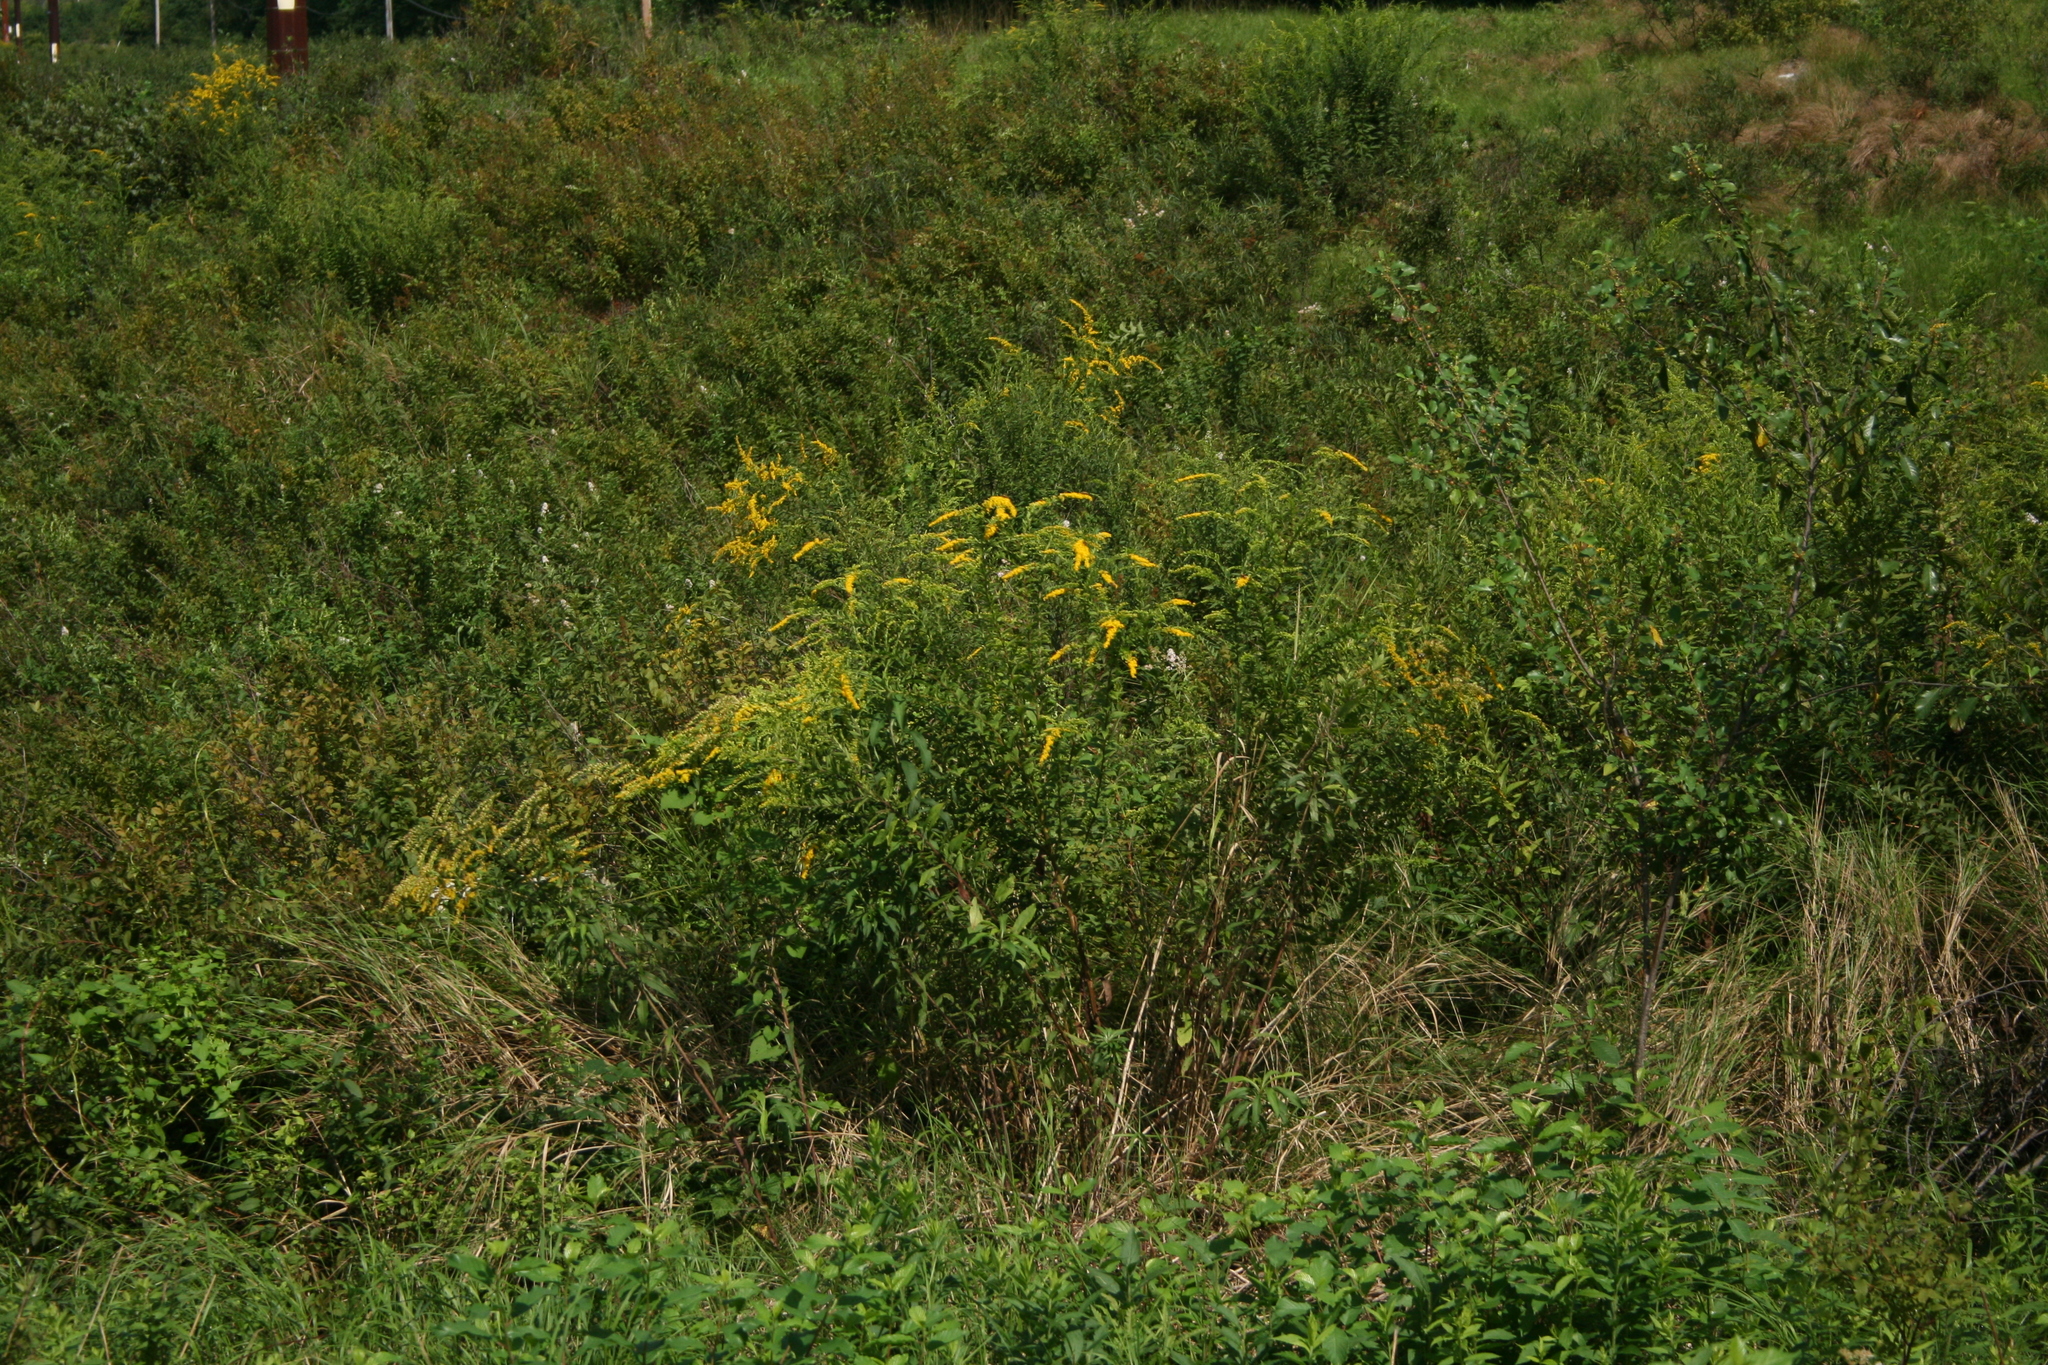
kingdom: Plantae
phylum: Tracheophyta
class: Magnoliopsida
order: Asterales
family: Asteraceae
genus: Solidago
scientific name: Solidago rugosa
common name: Rough-stemmed goldenrod
